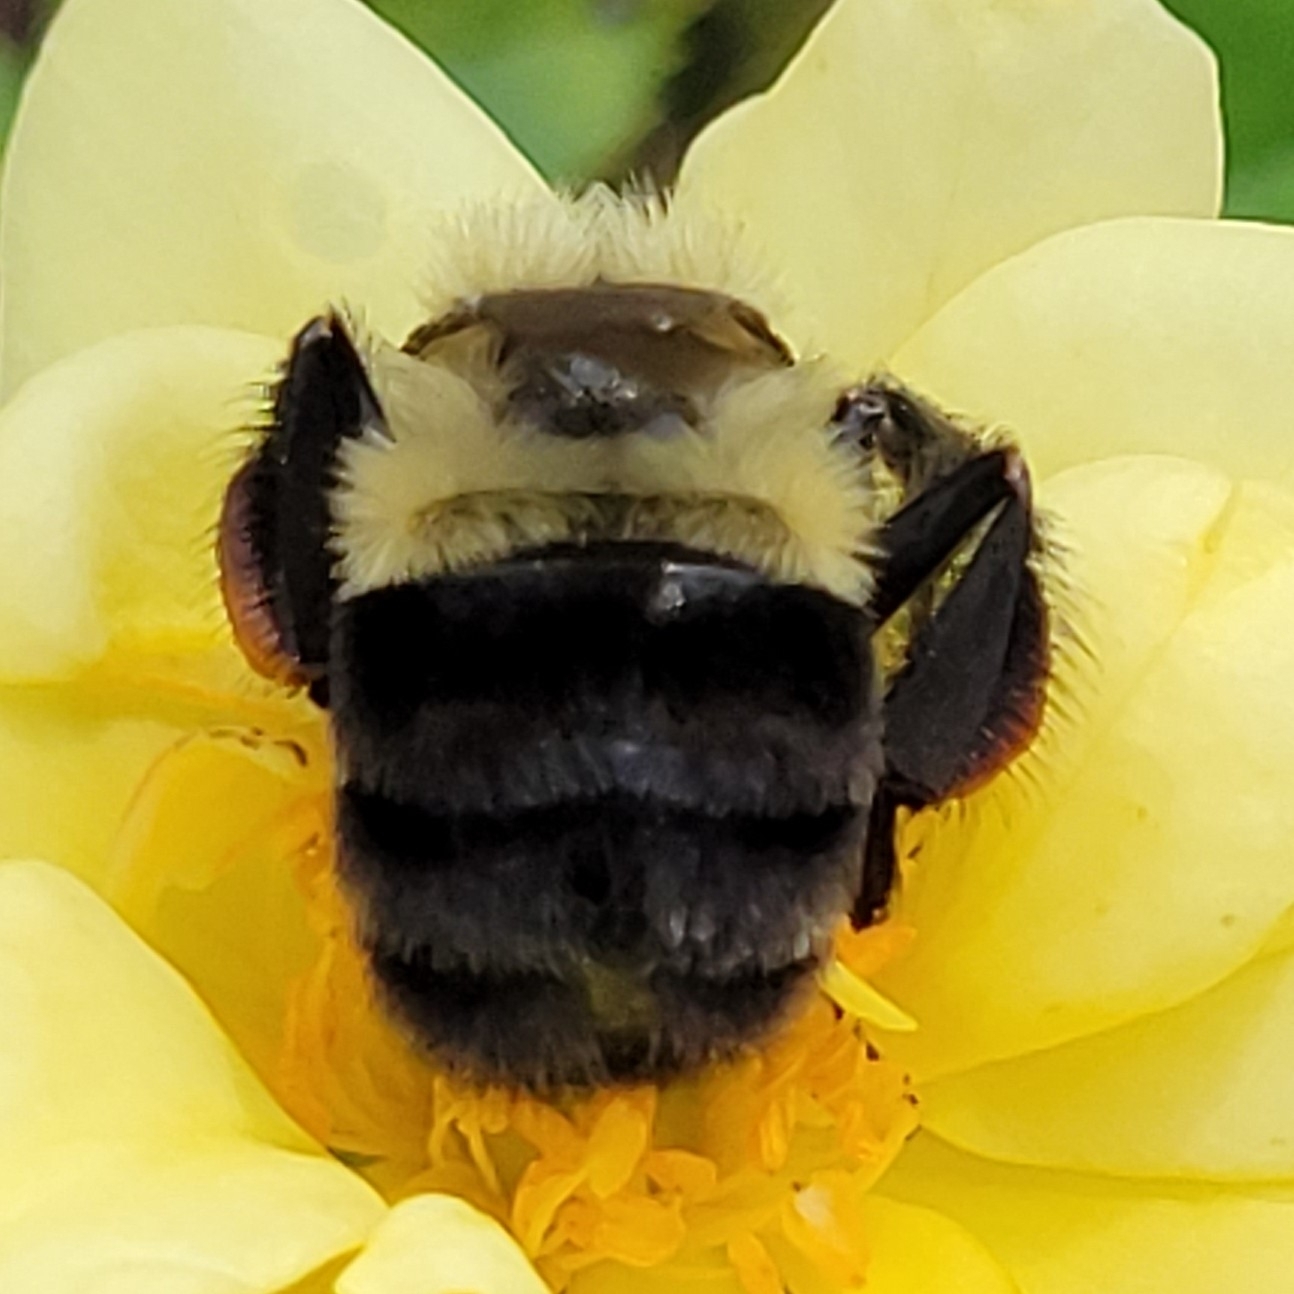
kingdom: Animalia
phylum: Arthropoda
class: Insecta
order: Hymenoptera
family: Apidae
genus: Bombus
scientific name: Bombus impatiens
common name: Common eastern bumble bee
